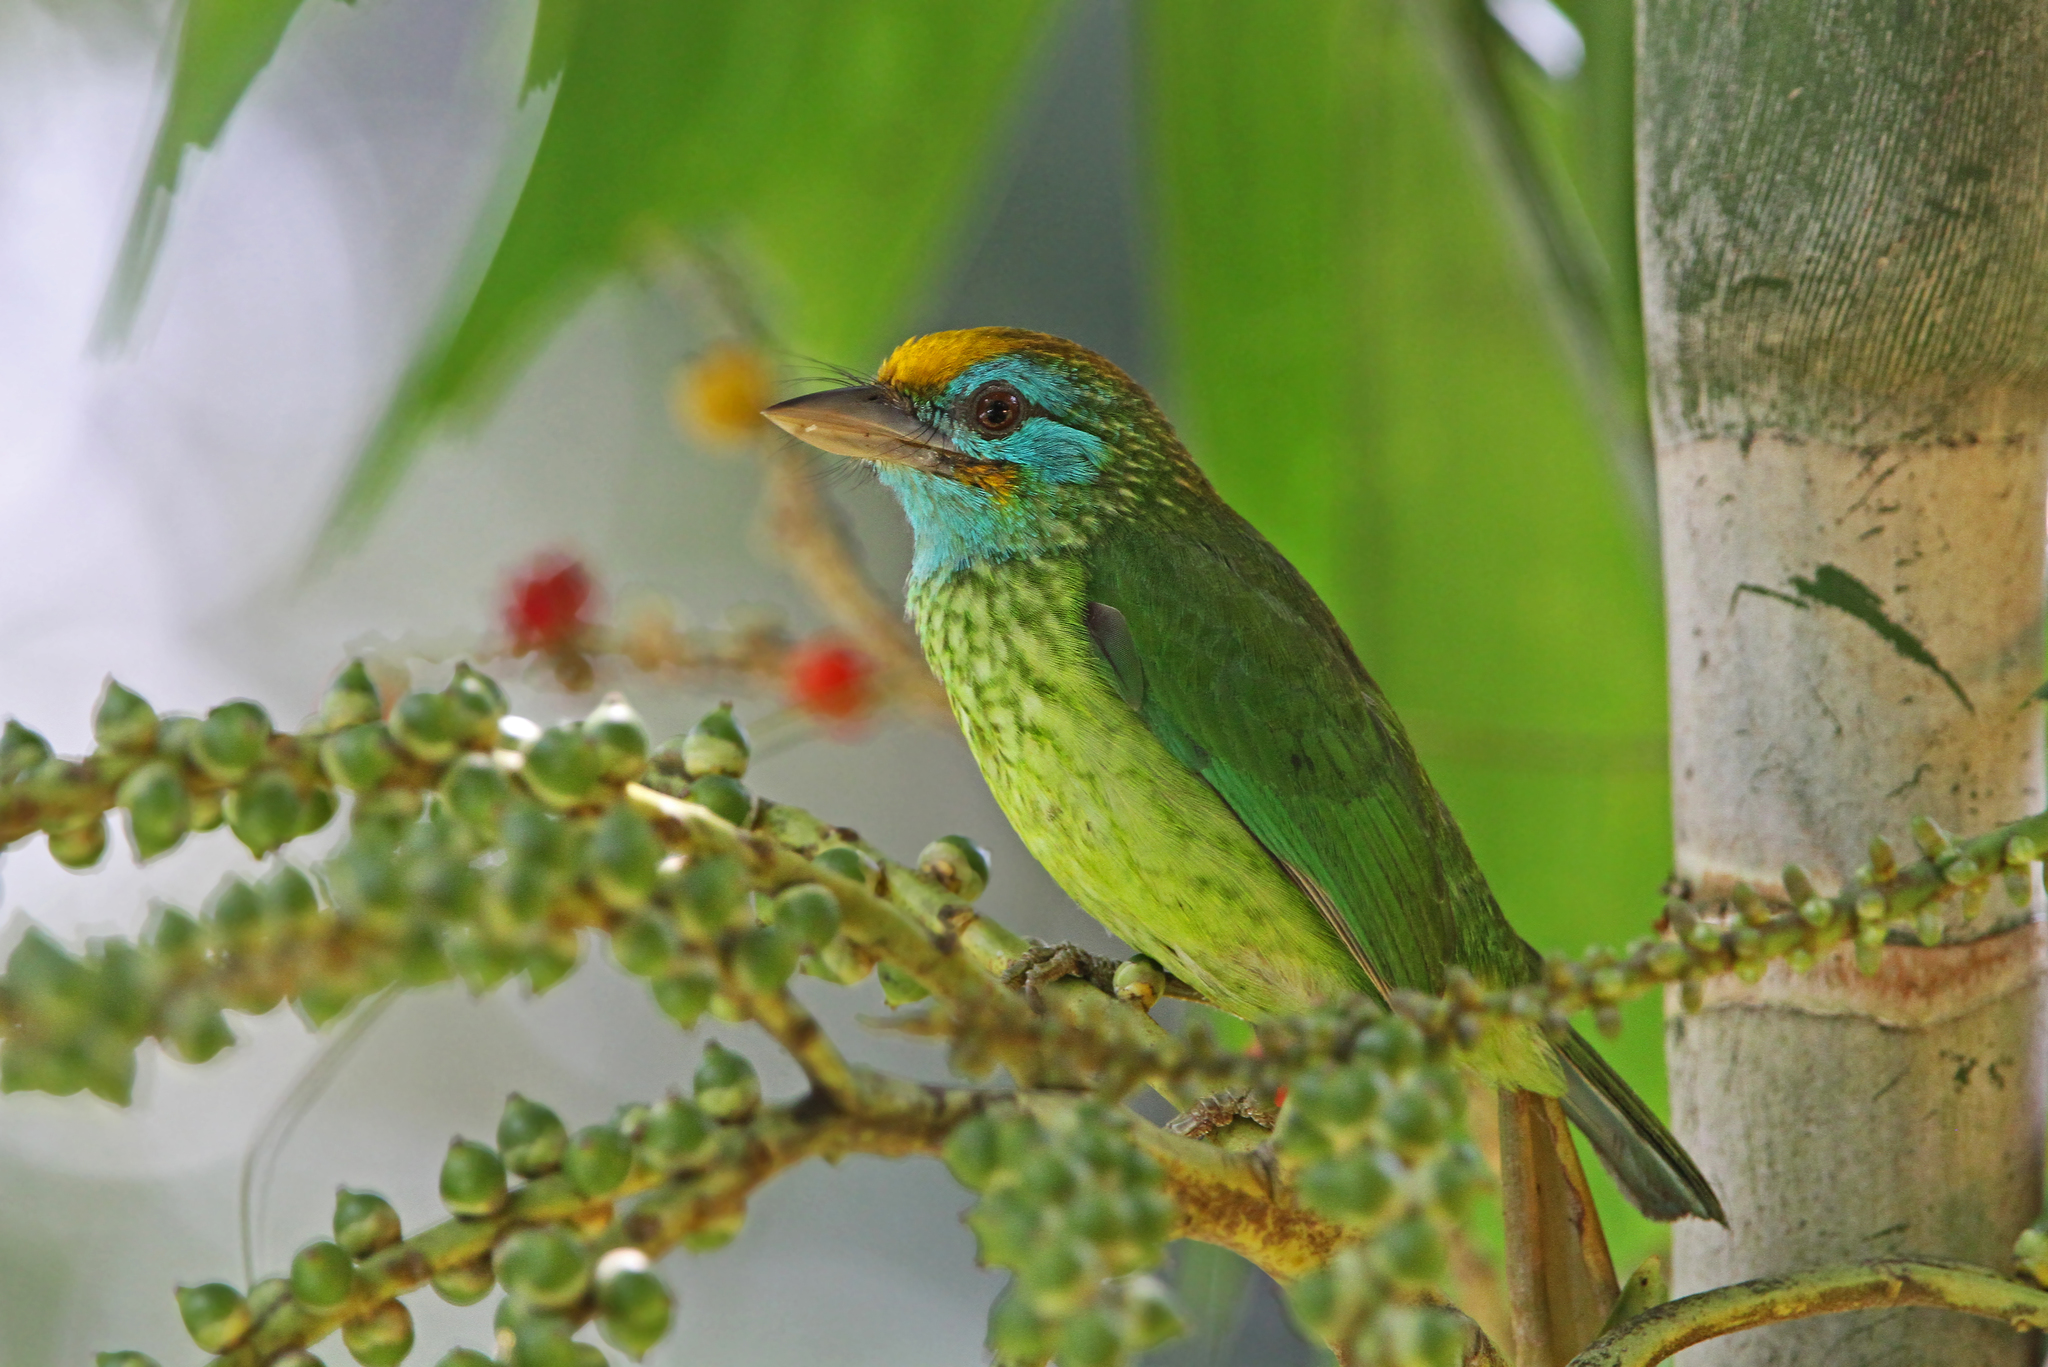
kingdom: Animalia
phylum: Chordata
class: Aves
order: Piciformes
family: Megalaimidae
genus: Psilopogon
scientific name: Psilopogon flavifrons
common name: Yellow-fronted barbet
